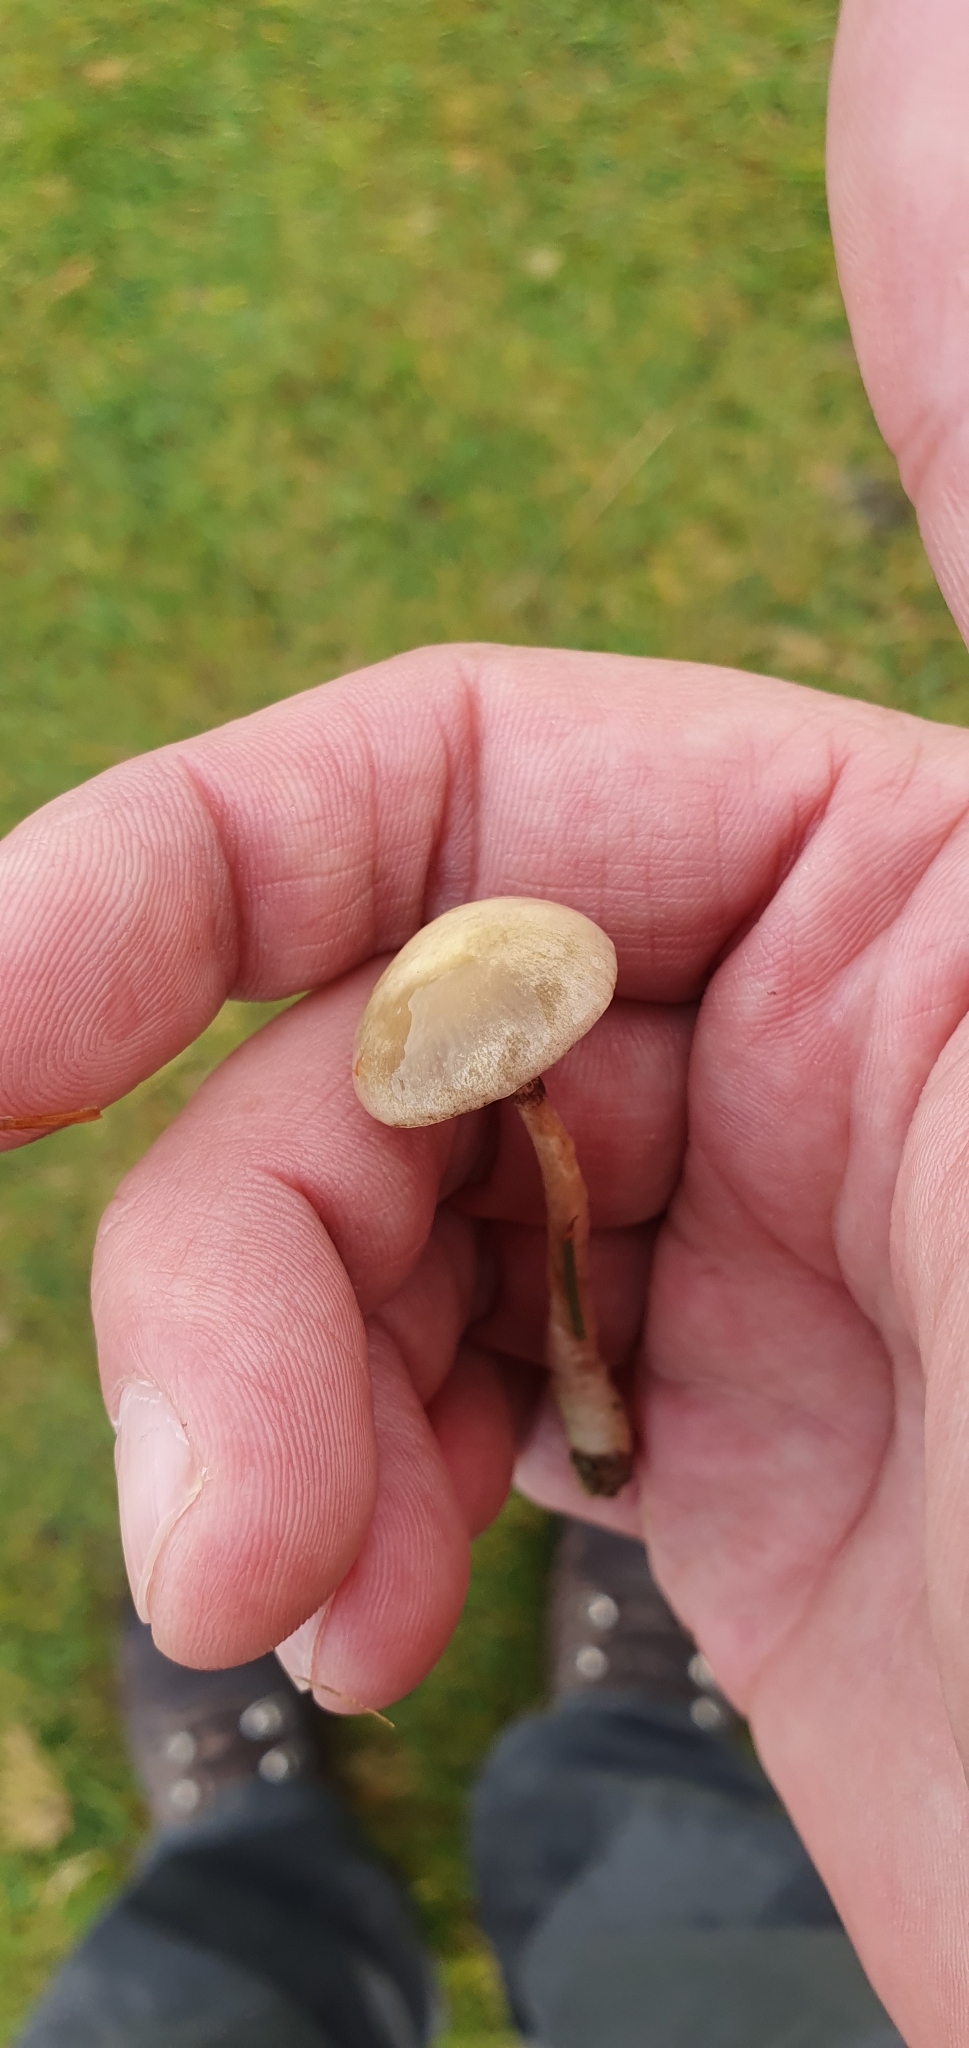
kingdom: Fungi
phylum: Basidiomycota
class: Agaricomycetes
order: Agaricales
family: Strophariaceae
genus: Protostropharia
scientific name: Protostropharia semiglobata
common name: Dung roundhead
